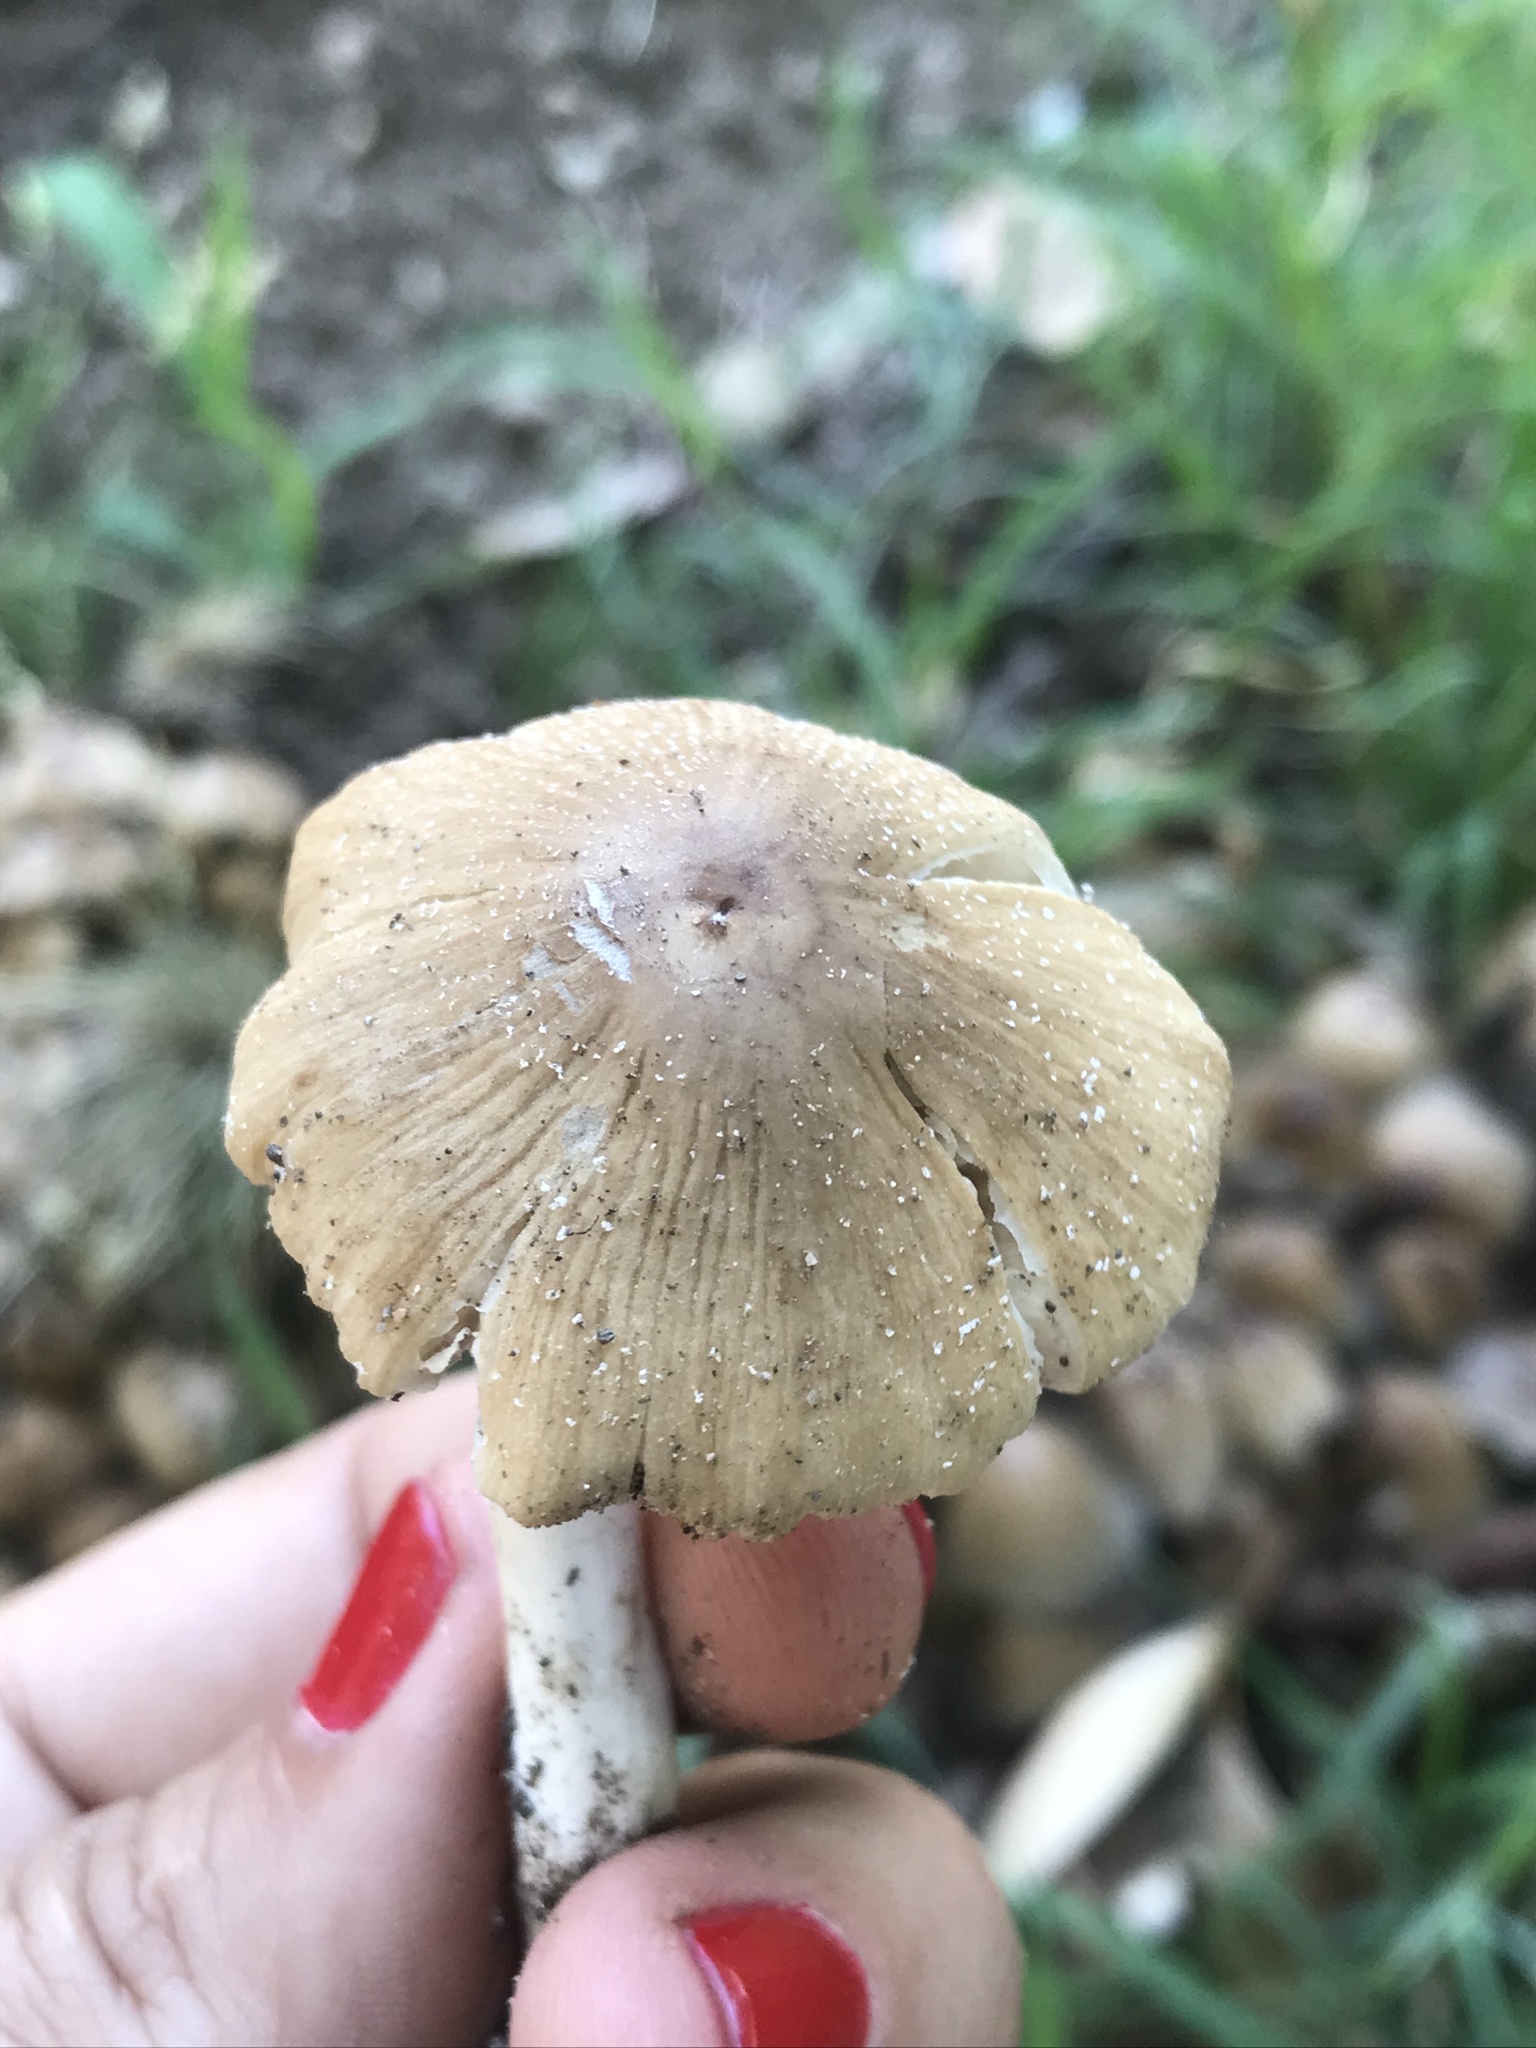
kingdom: Fungi
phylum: Basidiomycota
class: Agaricomycetes
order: Agaricales
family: Psathyrellaceae
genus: Coprinellus
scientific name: Coprinellus micaceus
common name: Glistening ink-cap
